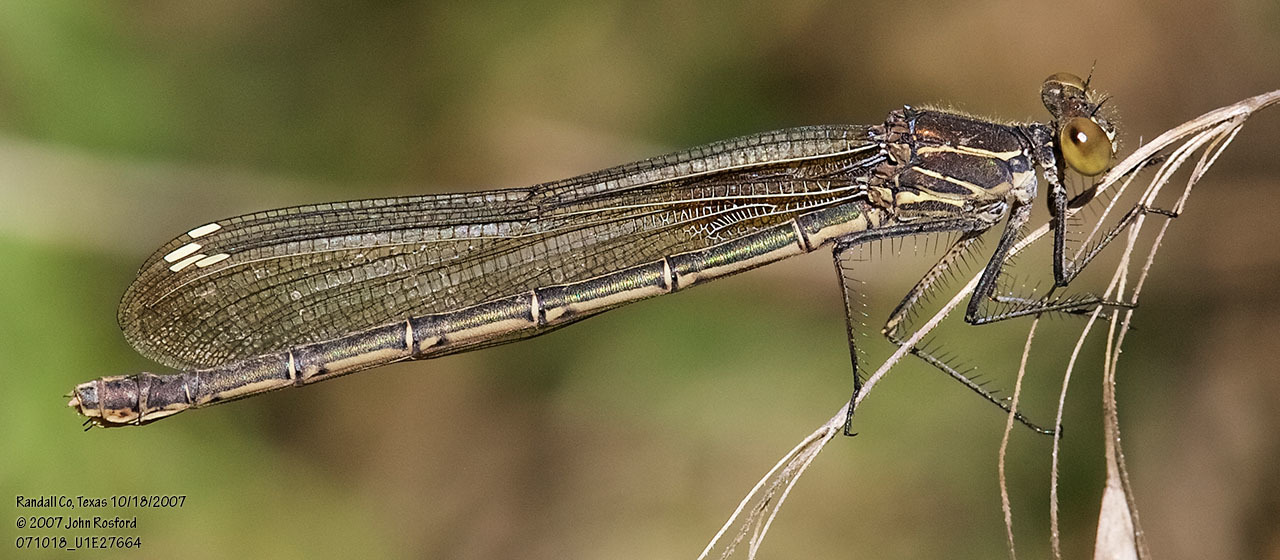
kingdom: Animalia
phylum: Arthropoda
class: Insecta
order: Odonata
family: Calopterygidae
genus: Hetaerina
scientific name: Hetaerina americana
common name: American rubyspot
